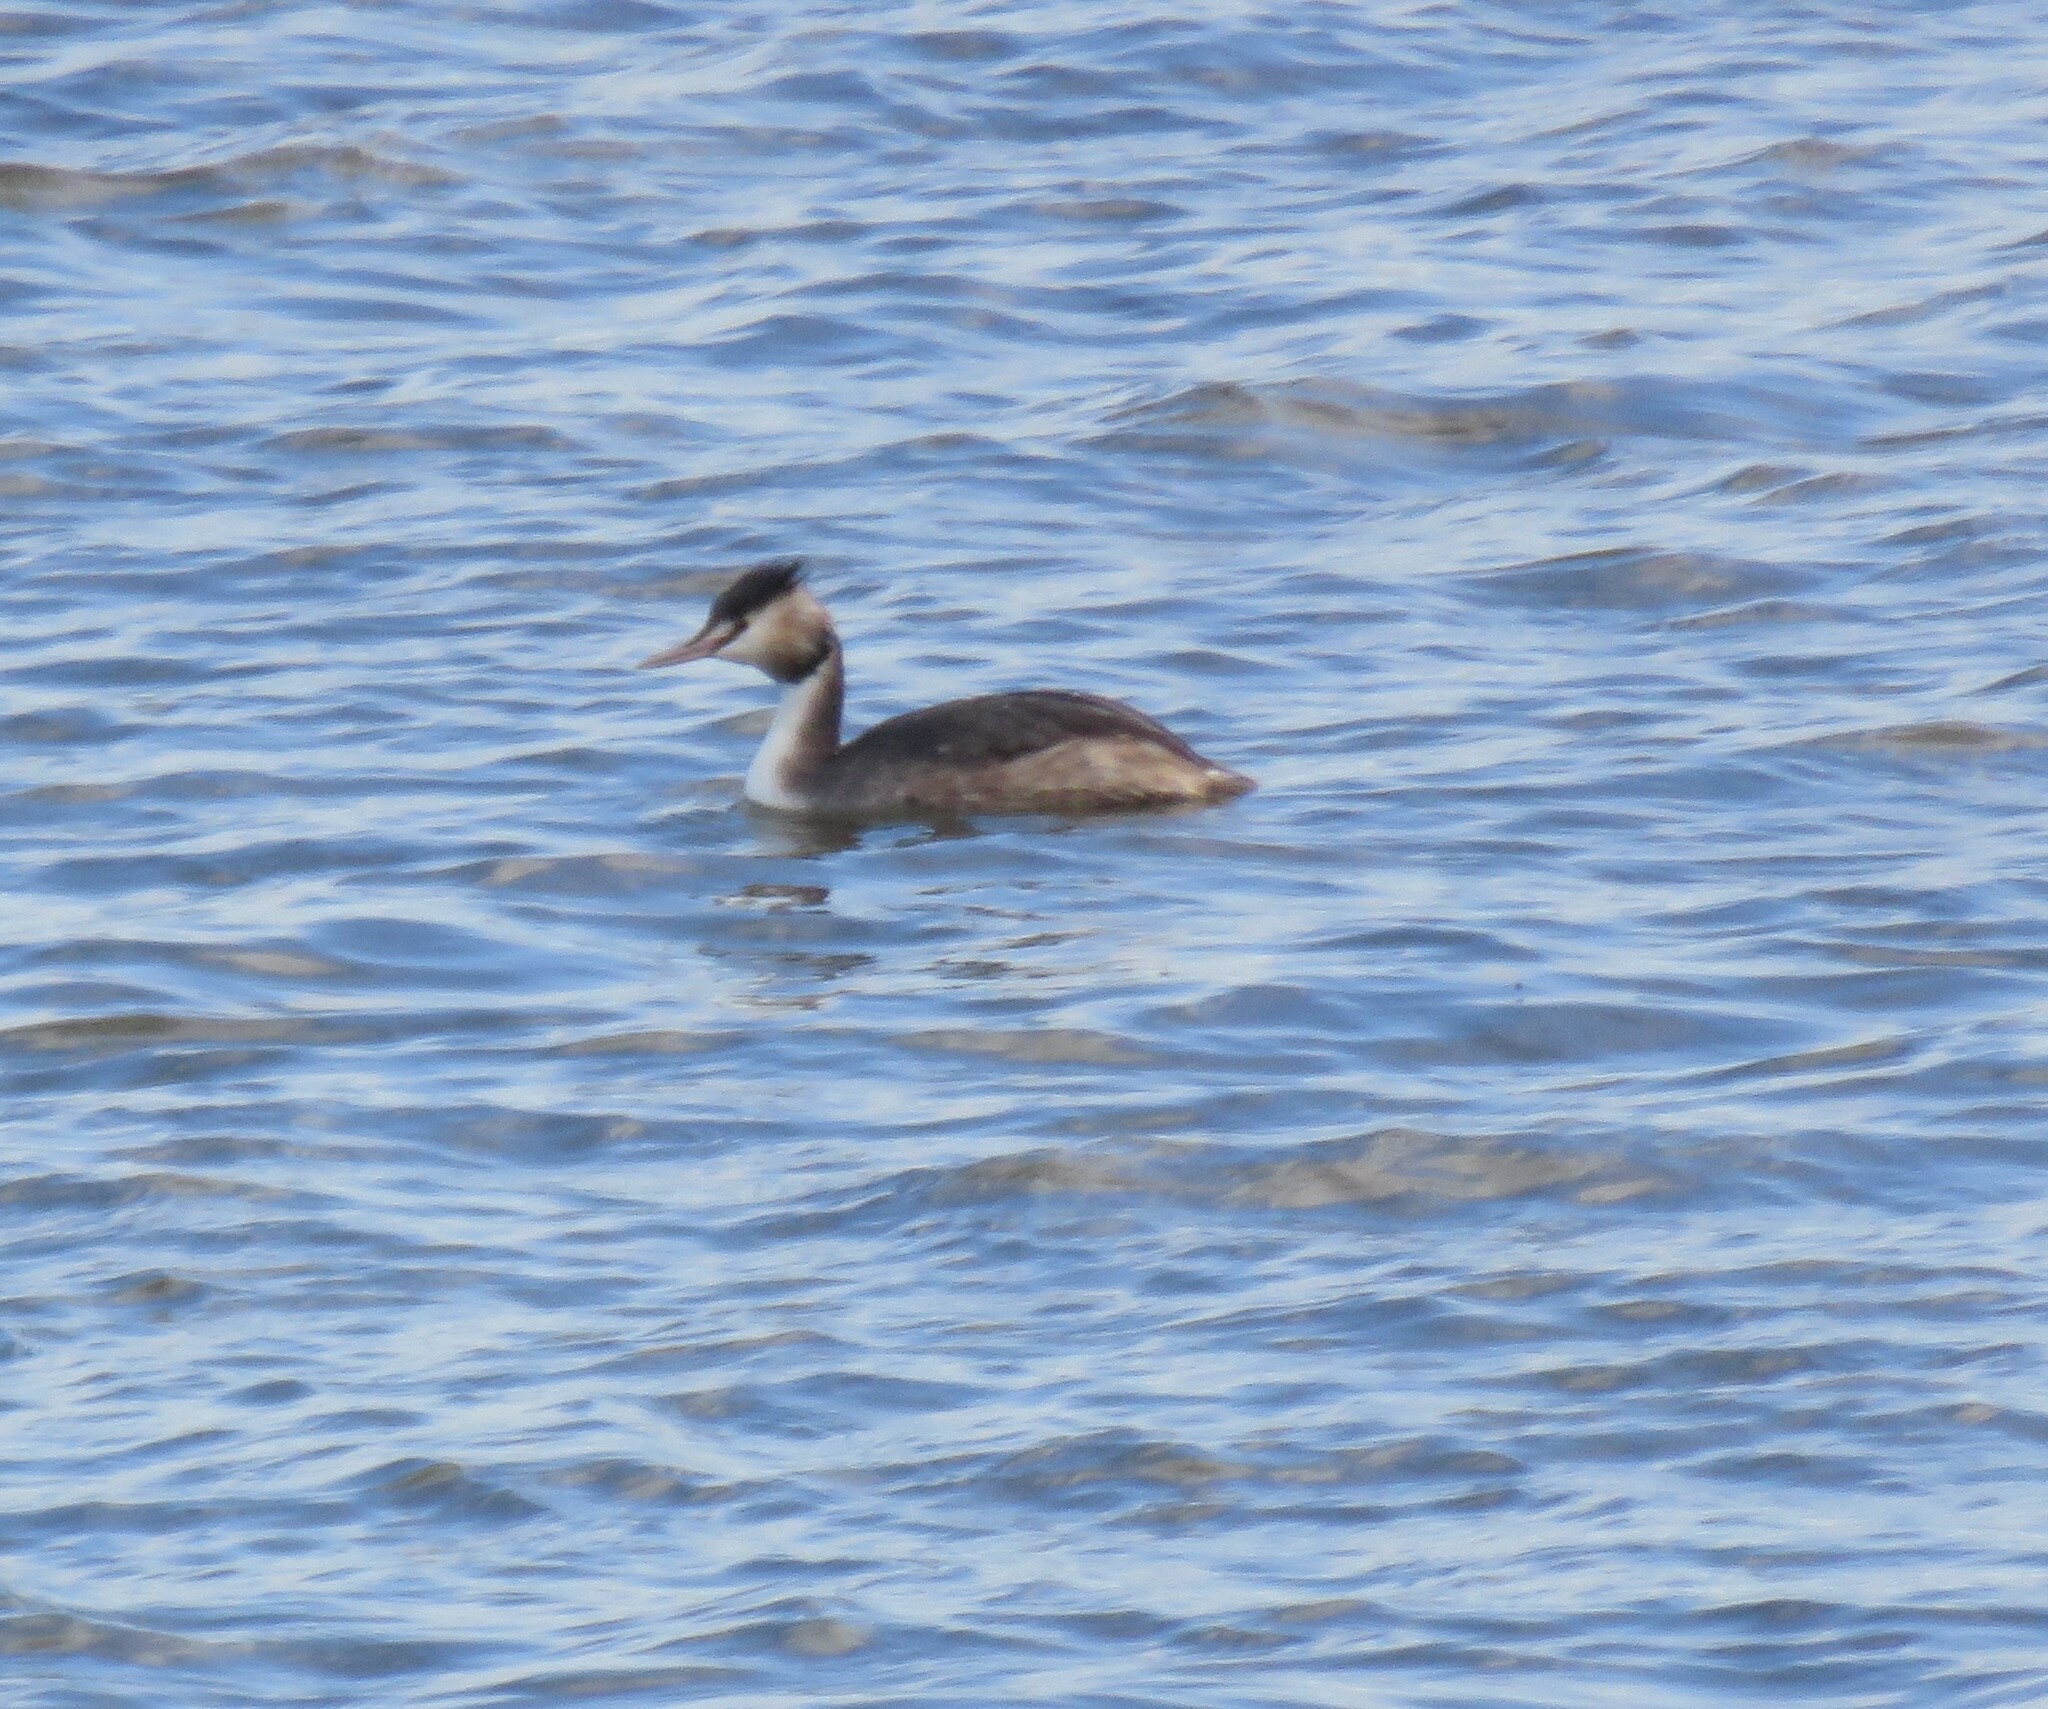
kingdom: Animalia
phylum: Chordata
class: Aves
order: Podicipediformes
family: Podicipedidae
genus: Podiceps
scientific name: Podiceps cristatus
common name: Great crested grebe
